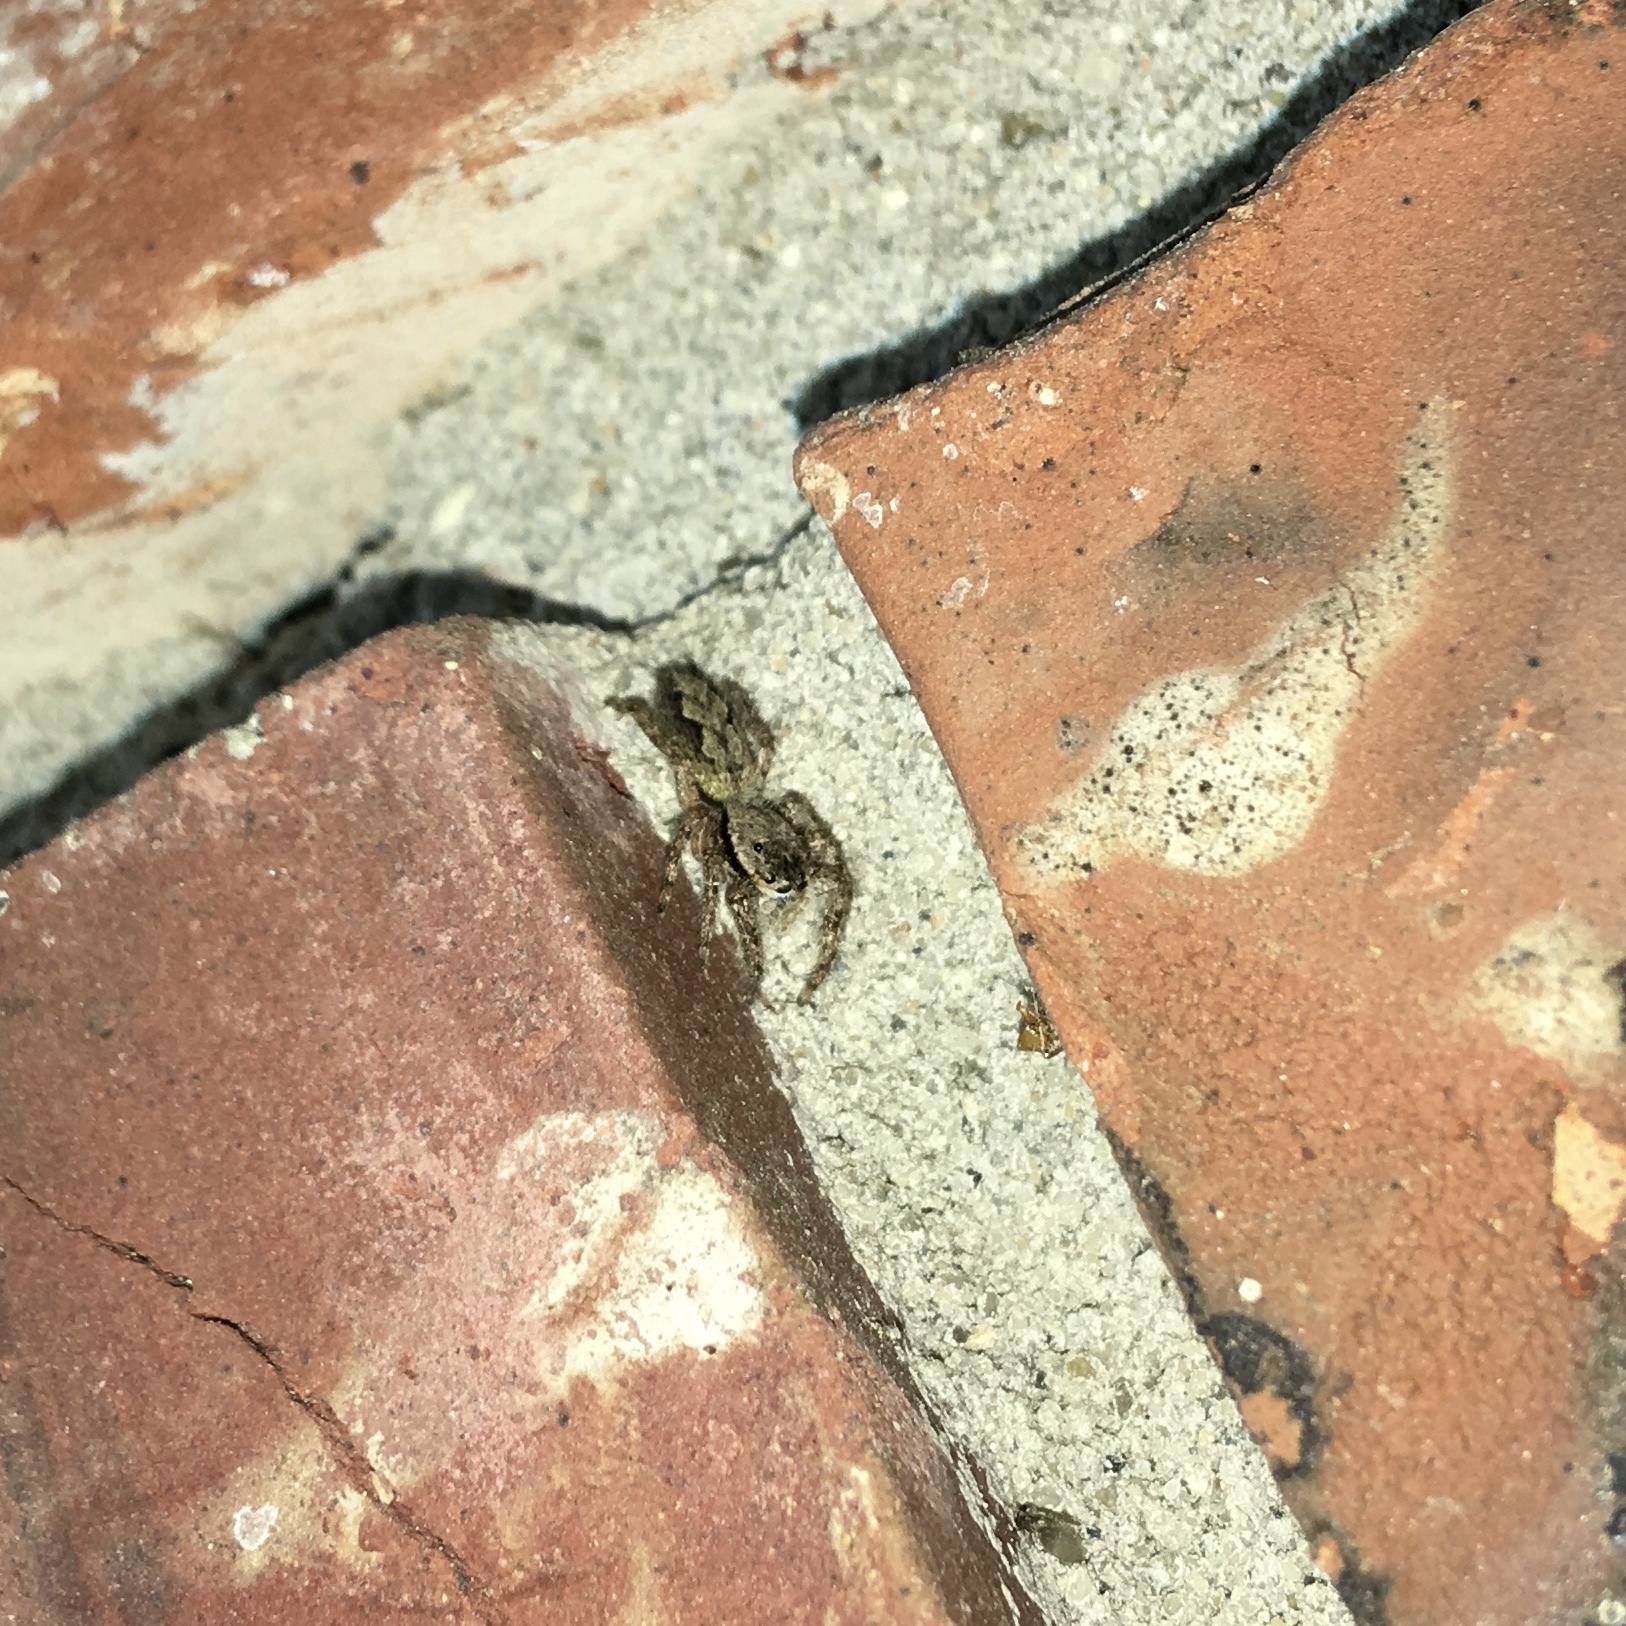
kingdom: Animalia
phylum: Arthropoda
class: Arachnida
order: Araneae
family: Salticidae
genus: Platycryptus
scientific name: Platycryptus undatus
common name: Tan jumping spider
